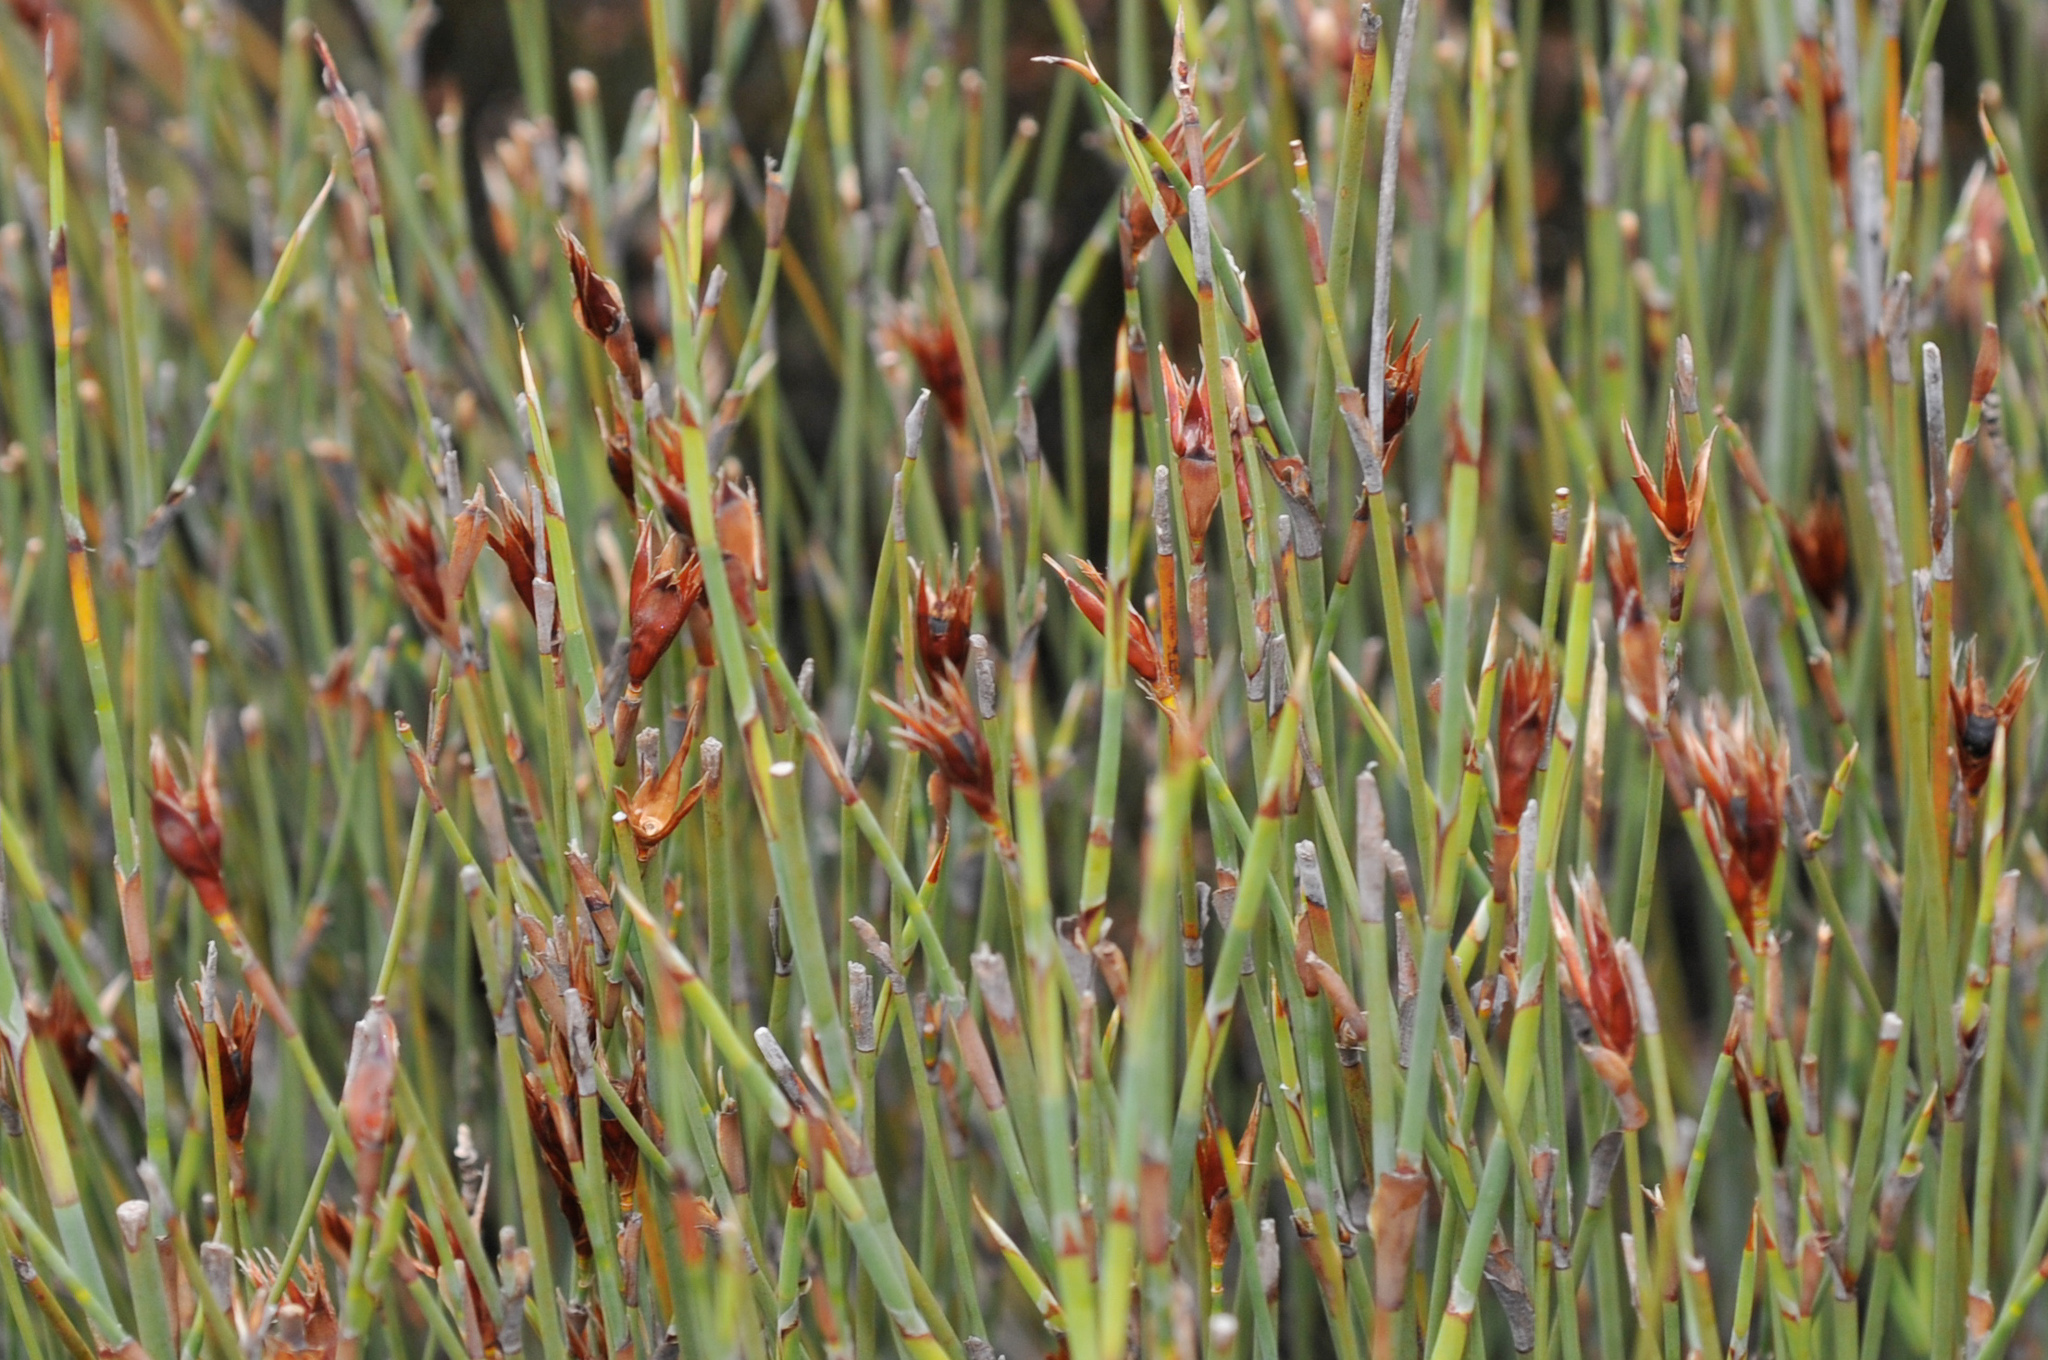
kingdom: Plantae
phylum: Tracheophyta
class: Liliopsida
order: Poales
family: Restionaceae
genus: Willdenowia
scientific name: Willdenowia incurvata
